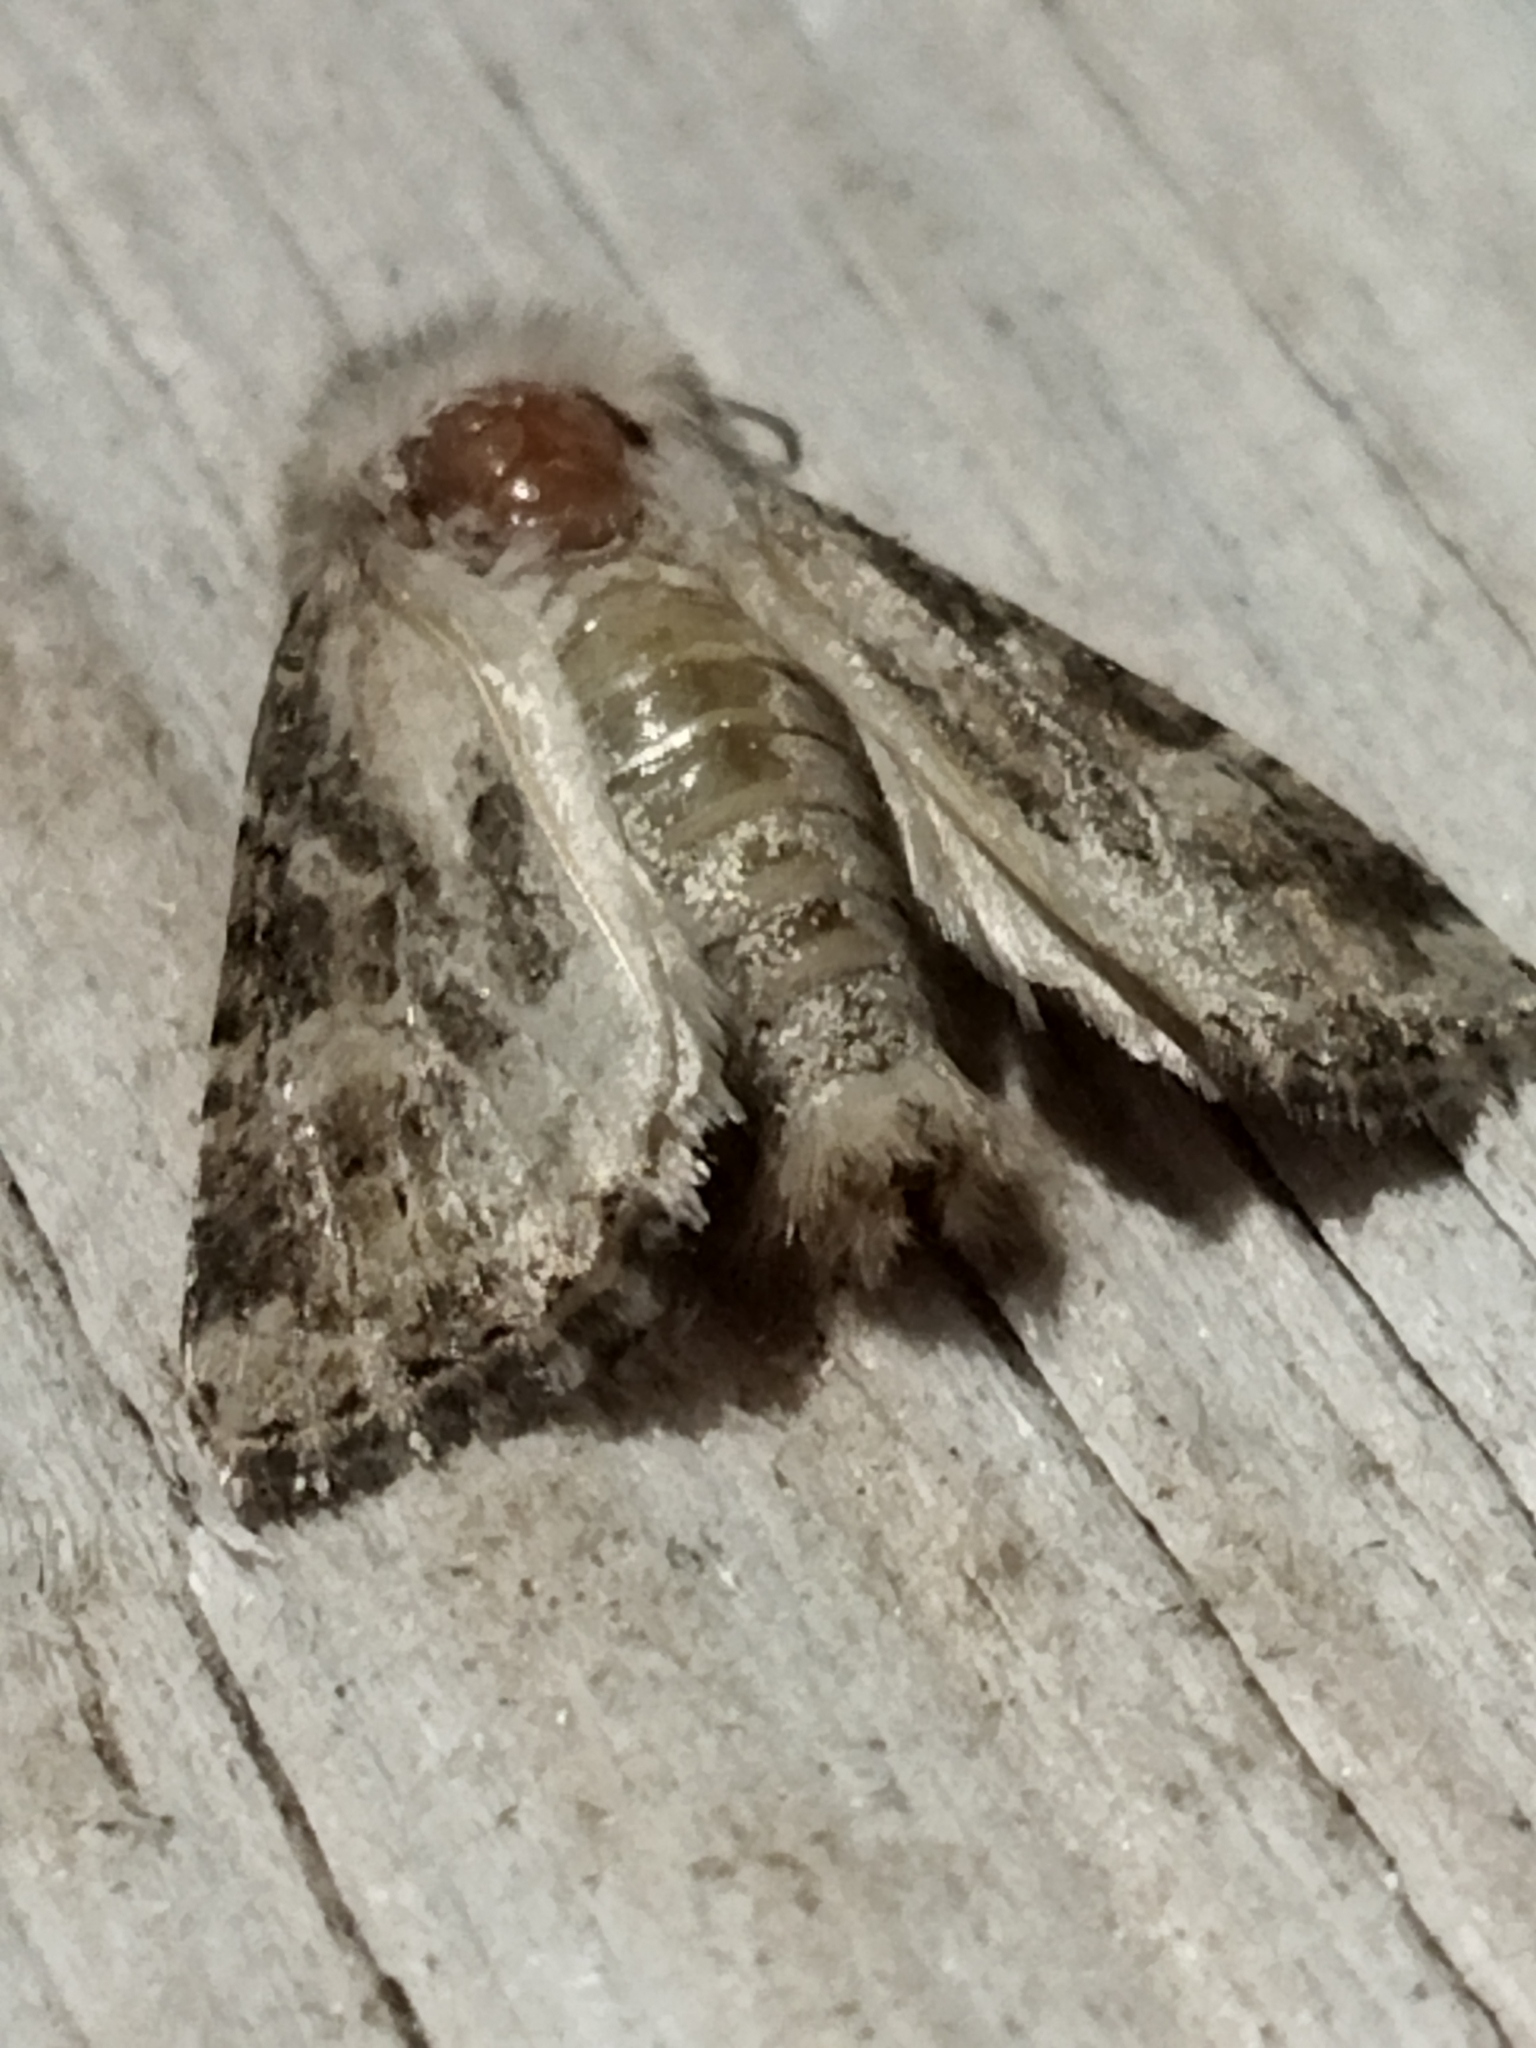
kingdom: Animalia
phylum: Arthropoda
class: Insecta
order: Lepidoptera
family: Noctuidae
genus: Luperina
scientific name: Luperina dumerilii
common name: Dumeril's rustic
